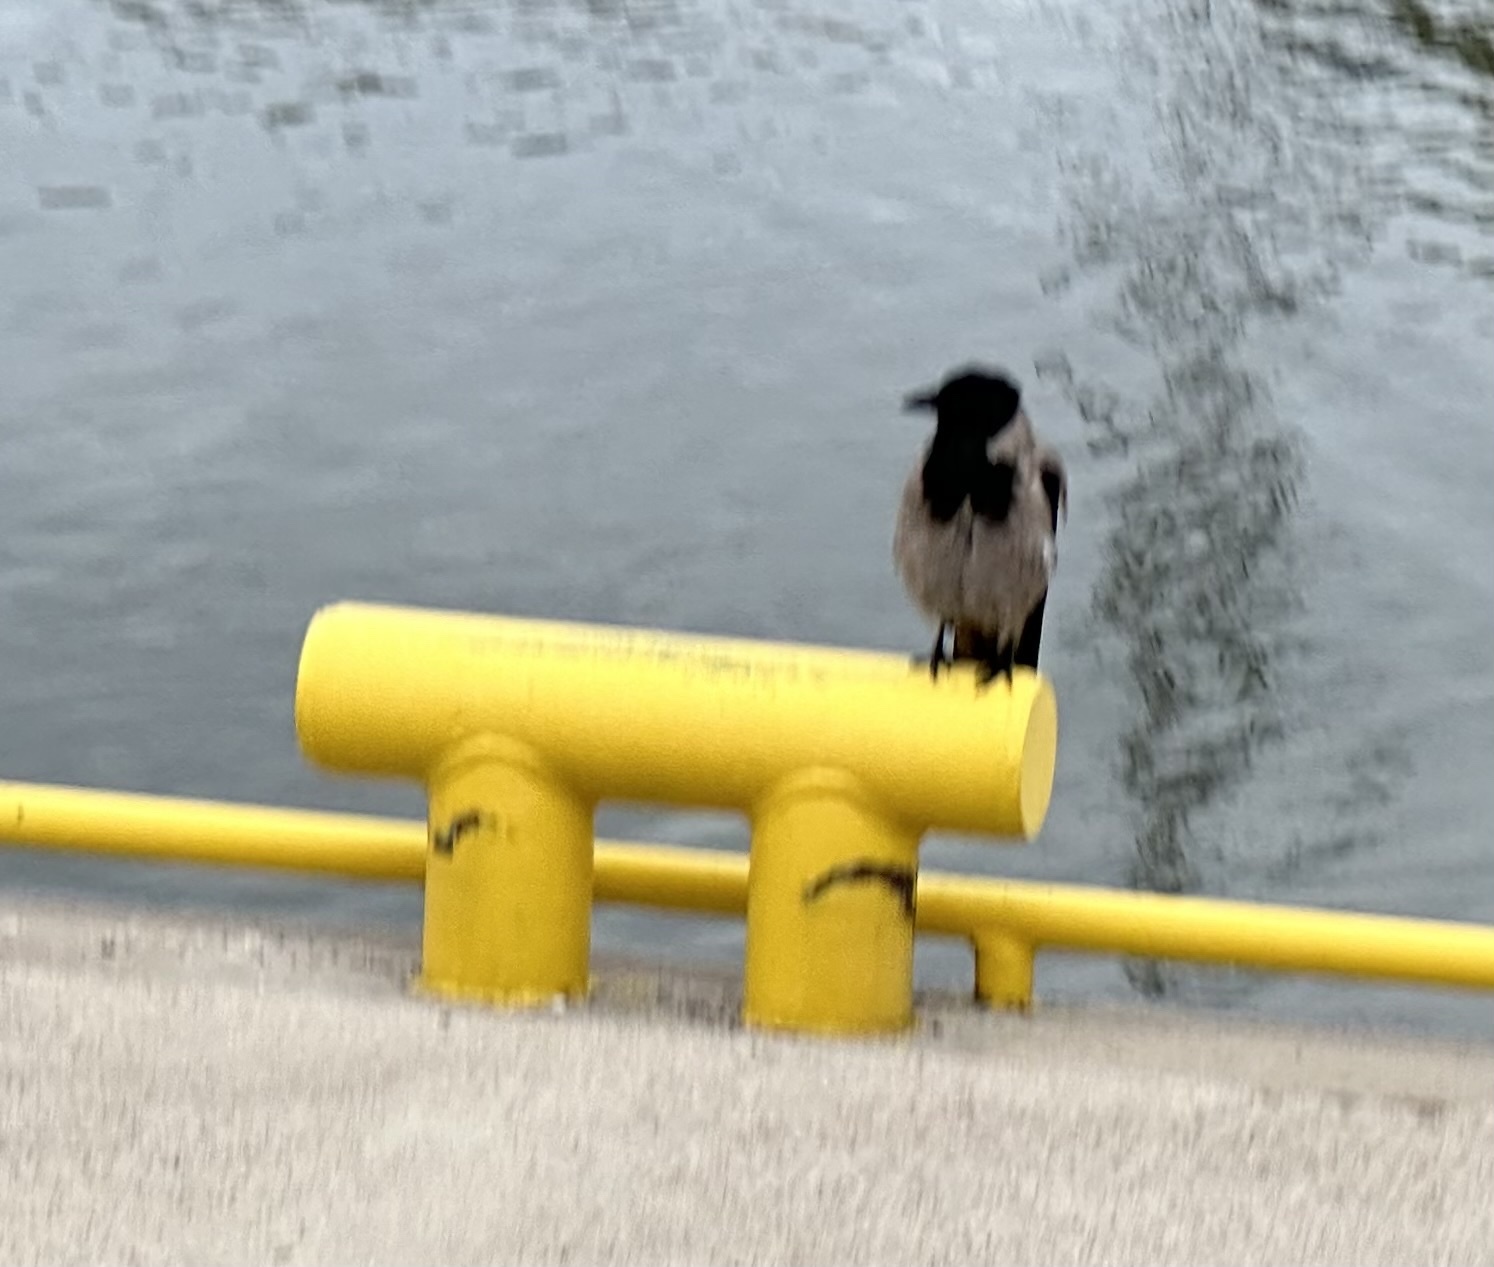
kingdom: Animalia
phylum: Chordata
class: Aves
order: Passeriformes
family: Corvidae
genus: Corvus
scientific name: Corvus cornix
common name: Hooded crow
